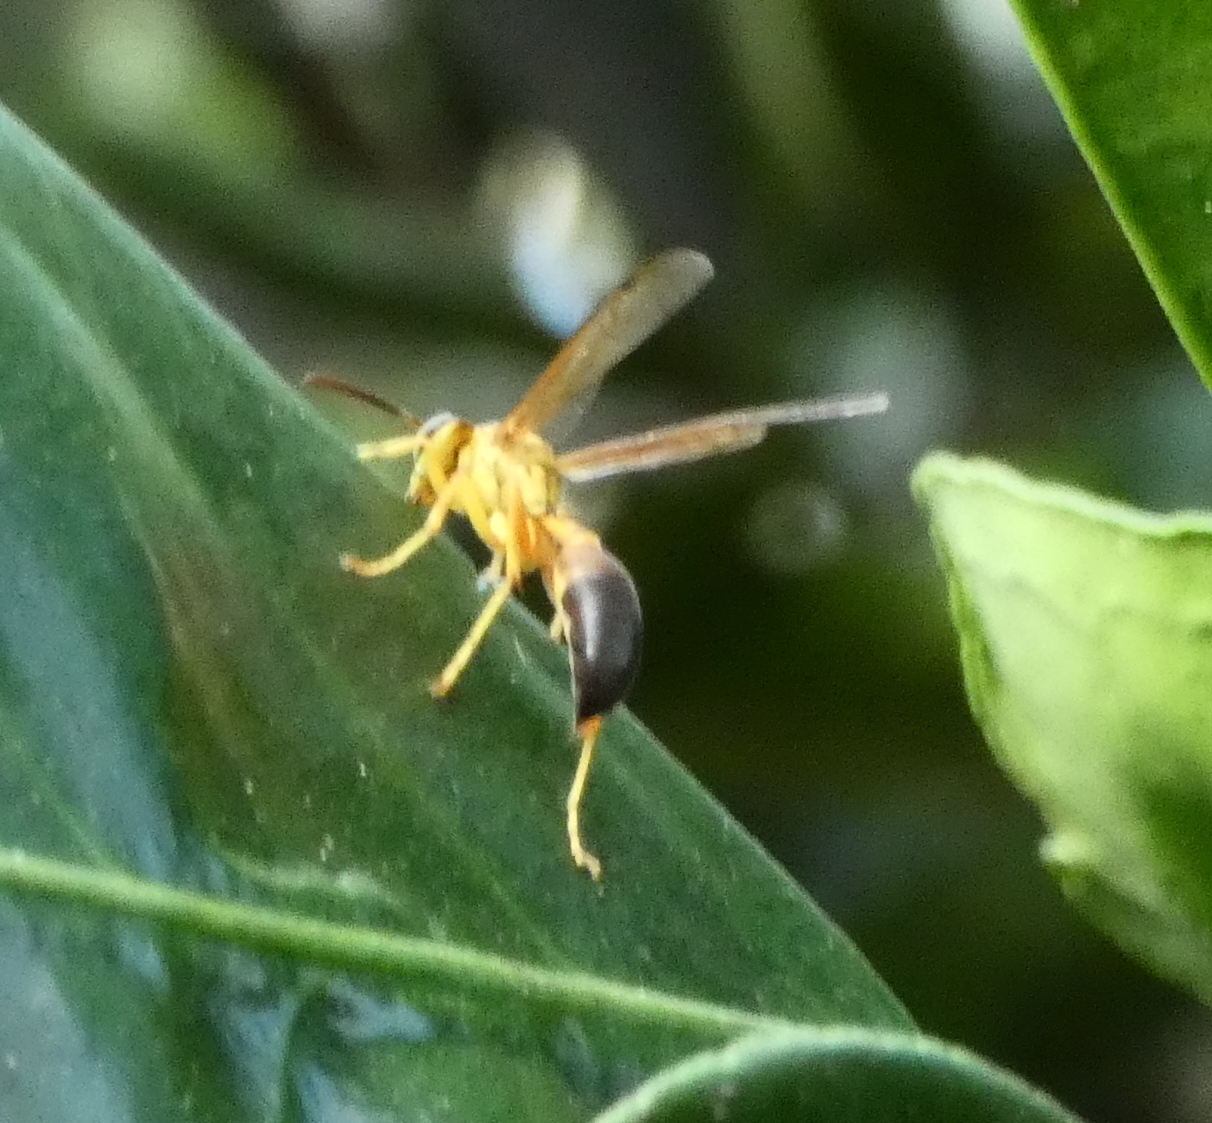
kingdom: Animalia
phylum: Arthropoda
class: Insecta
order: Hymenoptera
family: Vespidae
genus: Agelaia
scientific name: Agelaia pallipes
